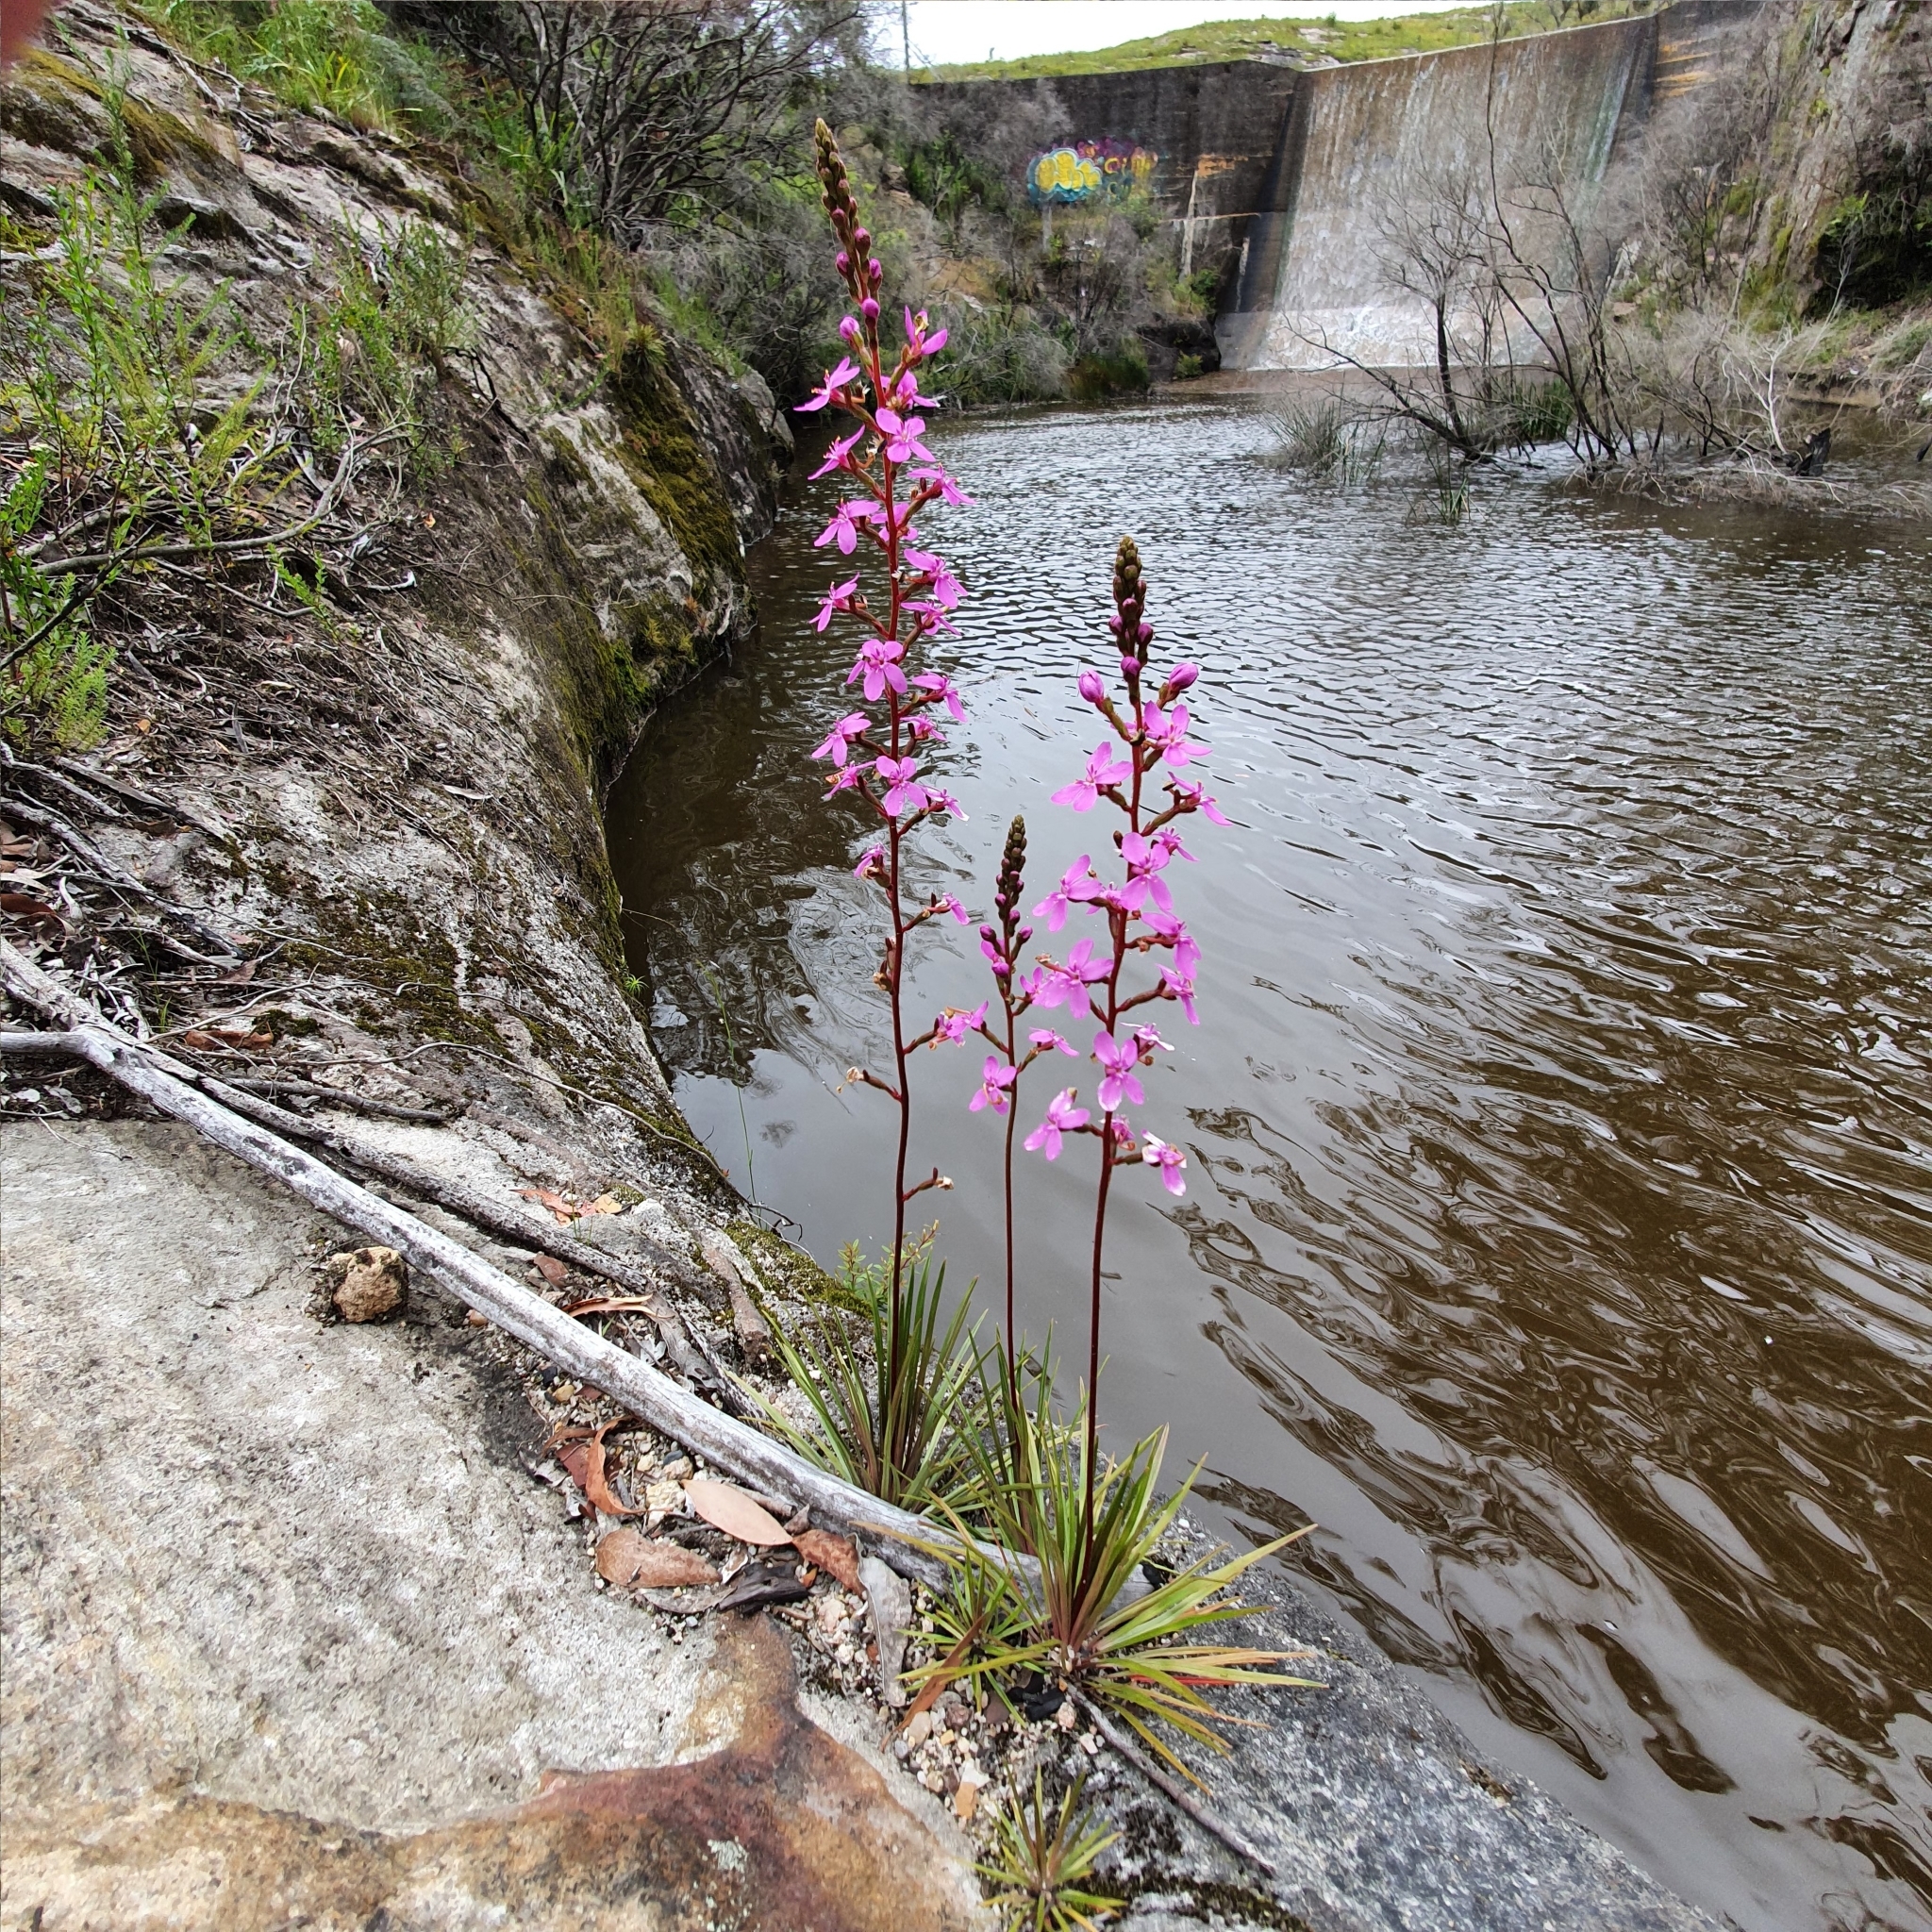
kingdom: Plantae
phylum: Tracheophyta
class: Magnoliopsida
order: Asterales
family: Stylidiaceae
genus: Stylidium
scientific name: Stylidium graminifolium
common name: Grass triggerplant
